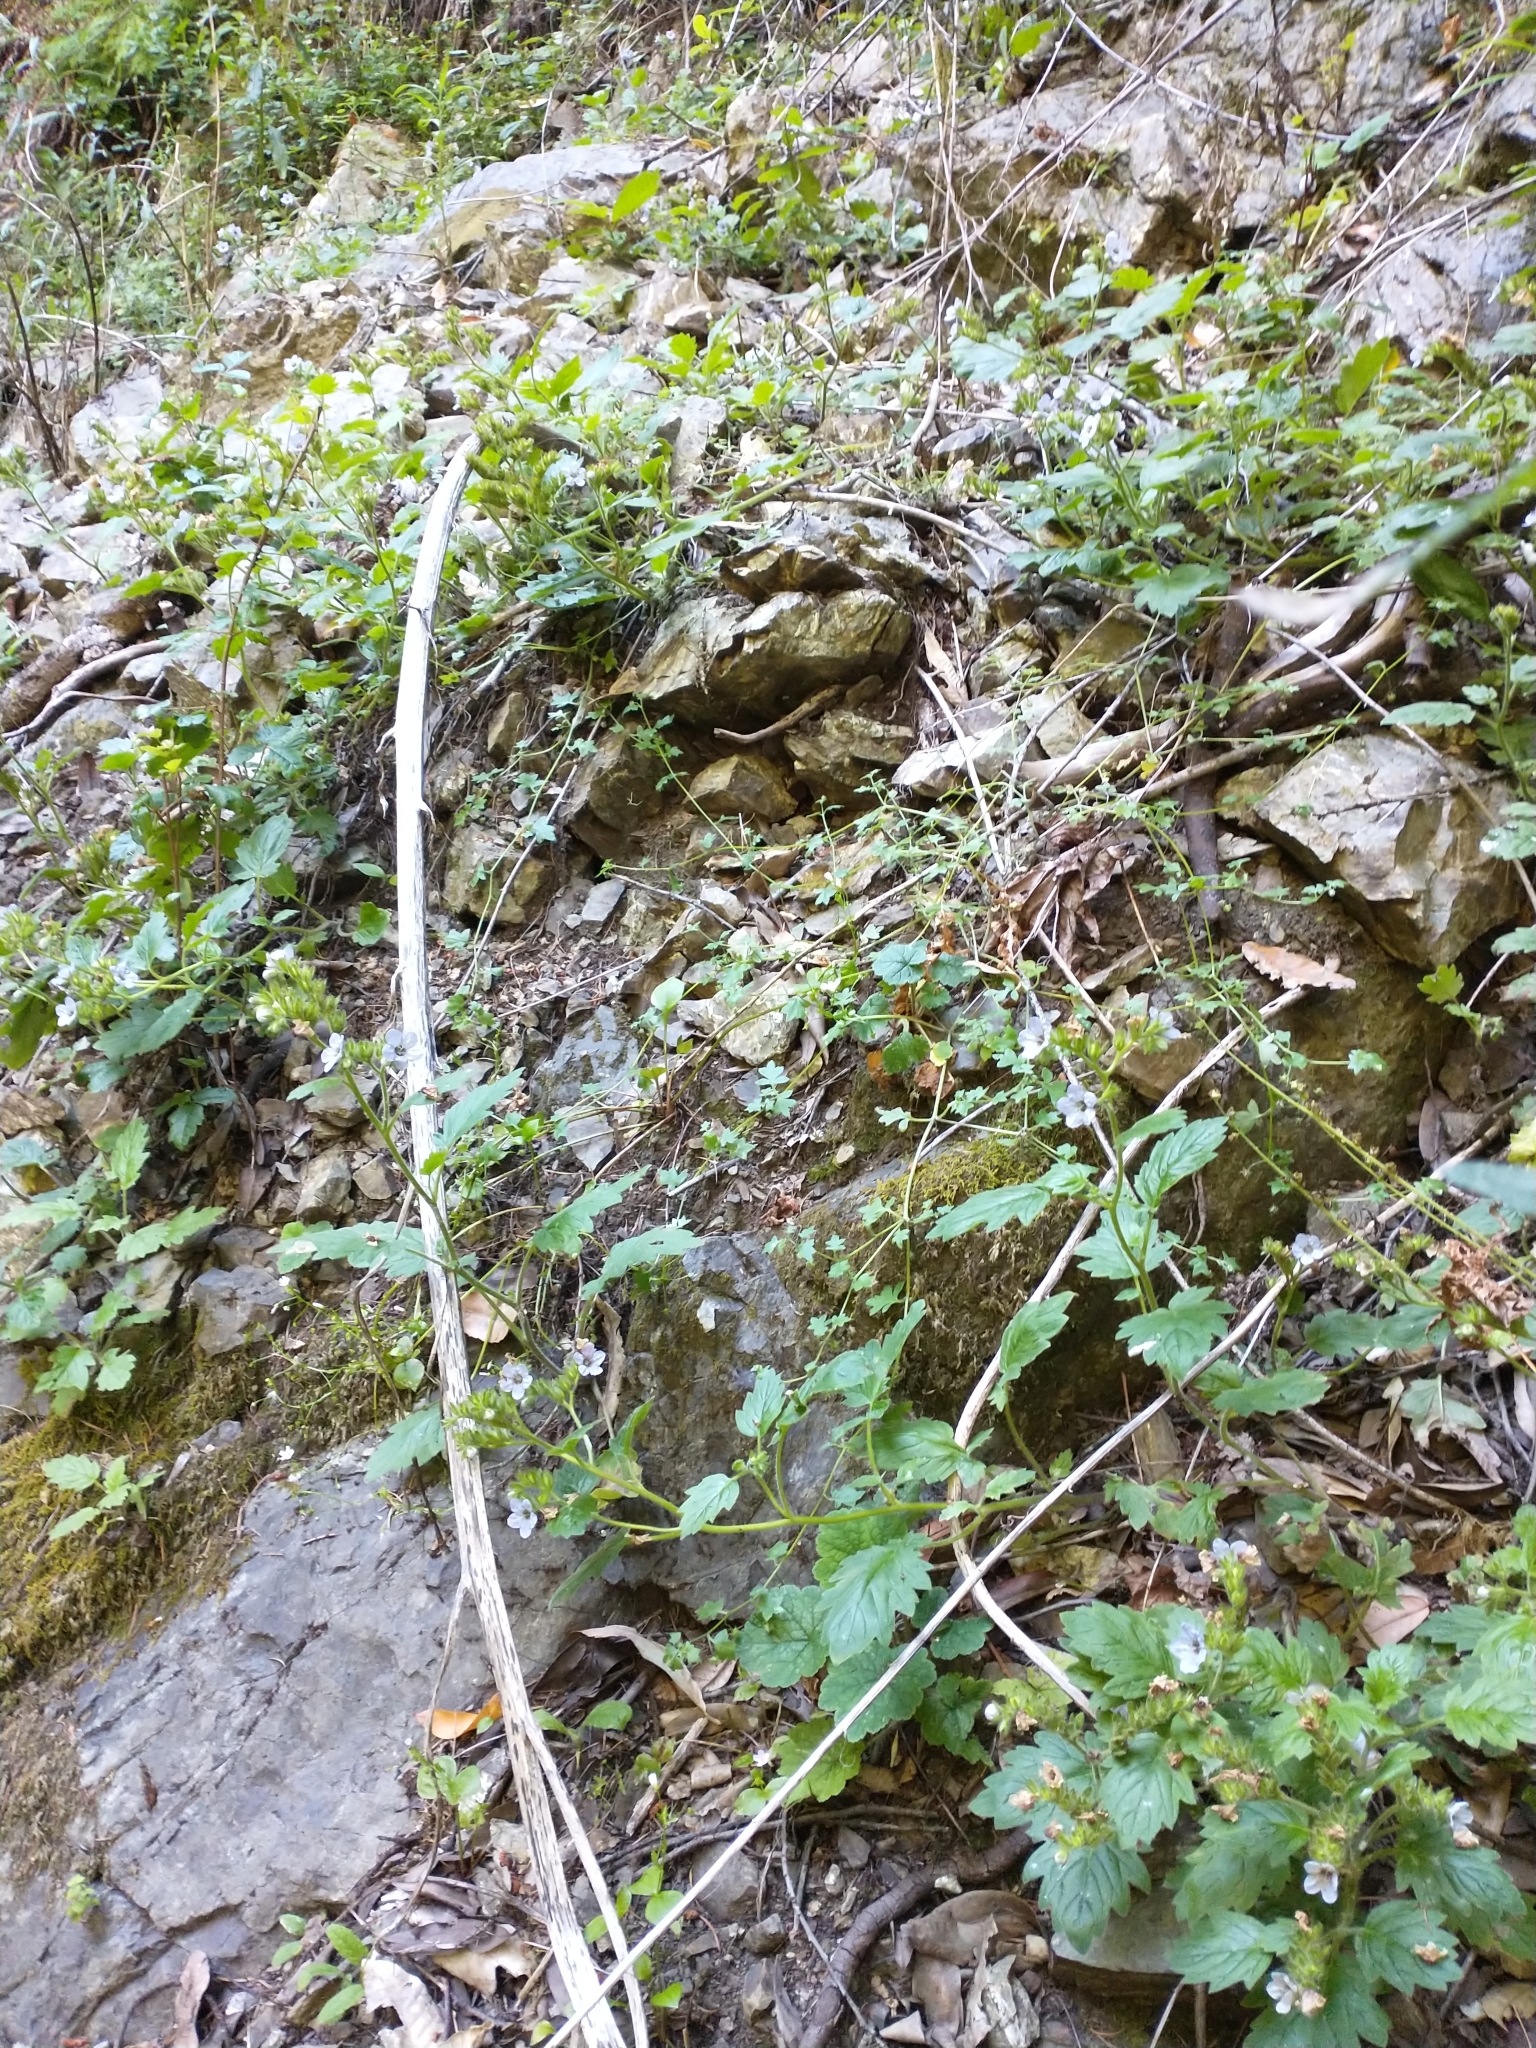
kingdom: Plantae
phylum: Tracheophyta
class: Magnoliopsida
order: Boraginales
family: Hydrophyllaceae
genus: Phacelia
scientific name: Phacelia bolanderi
